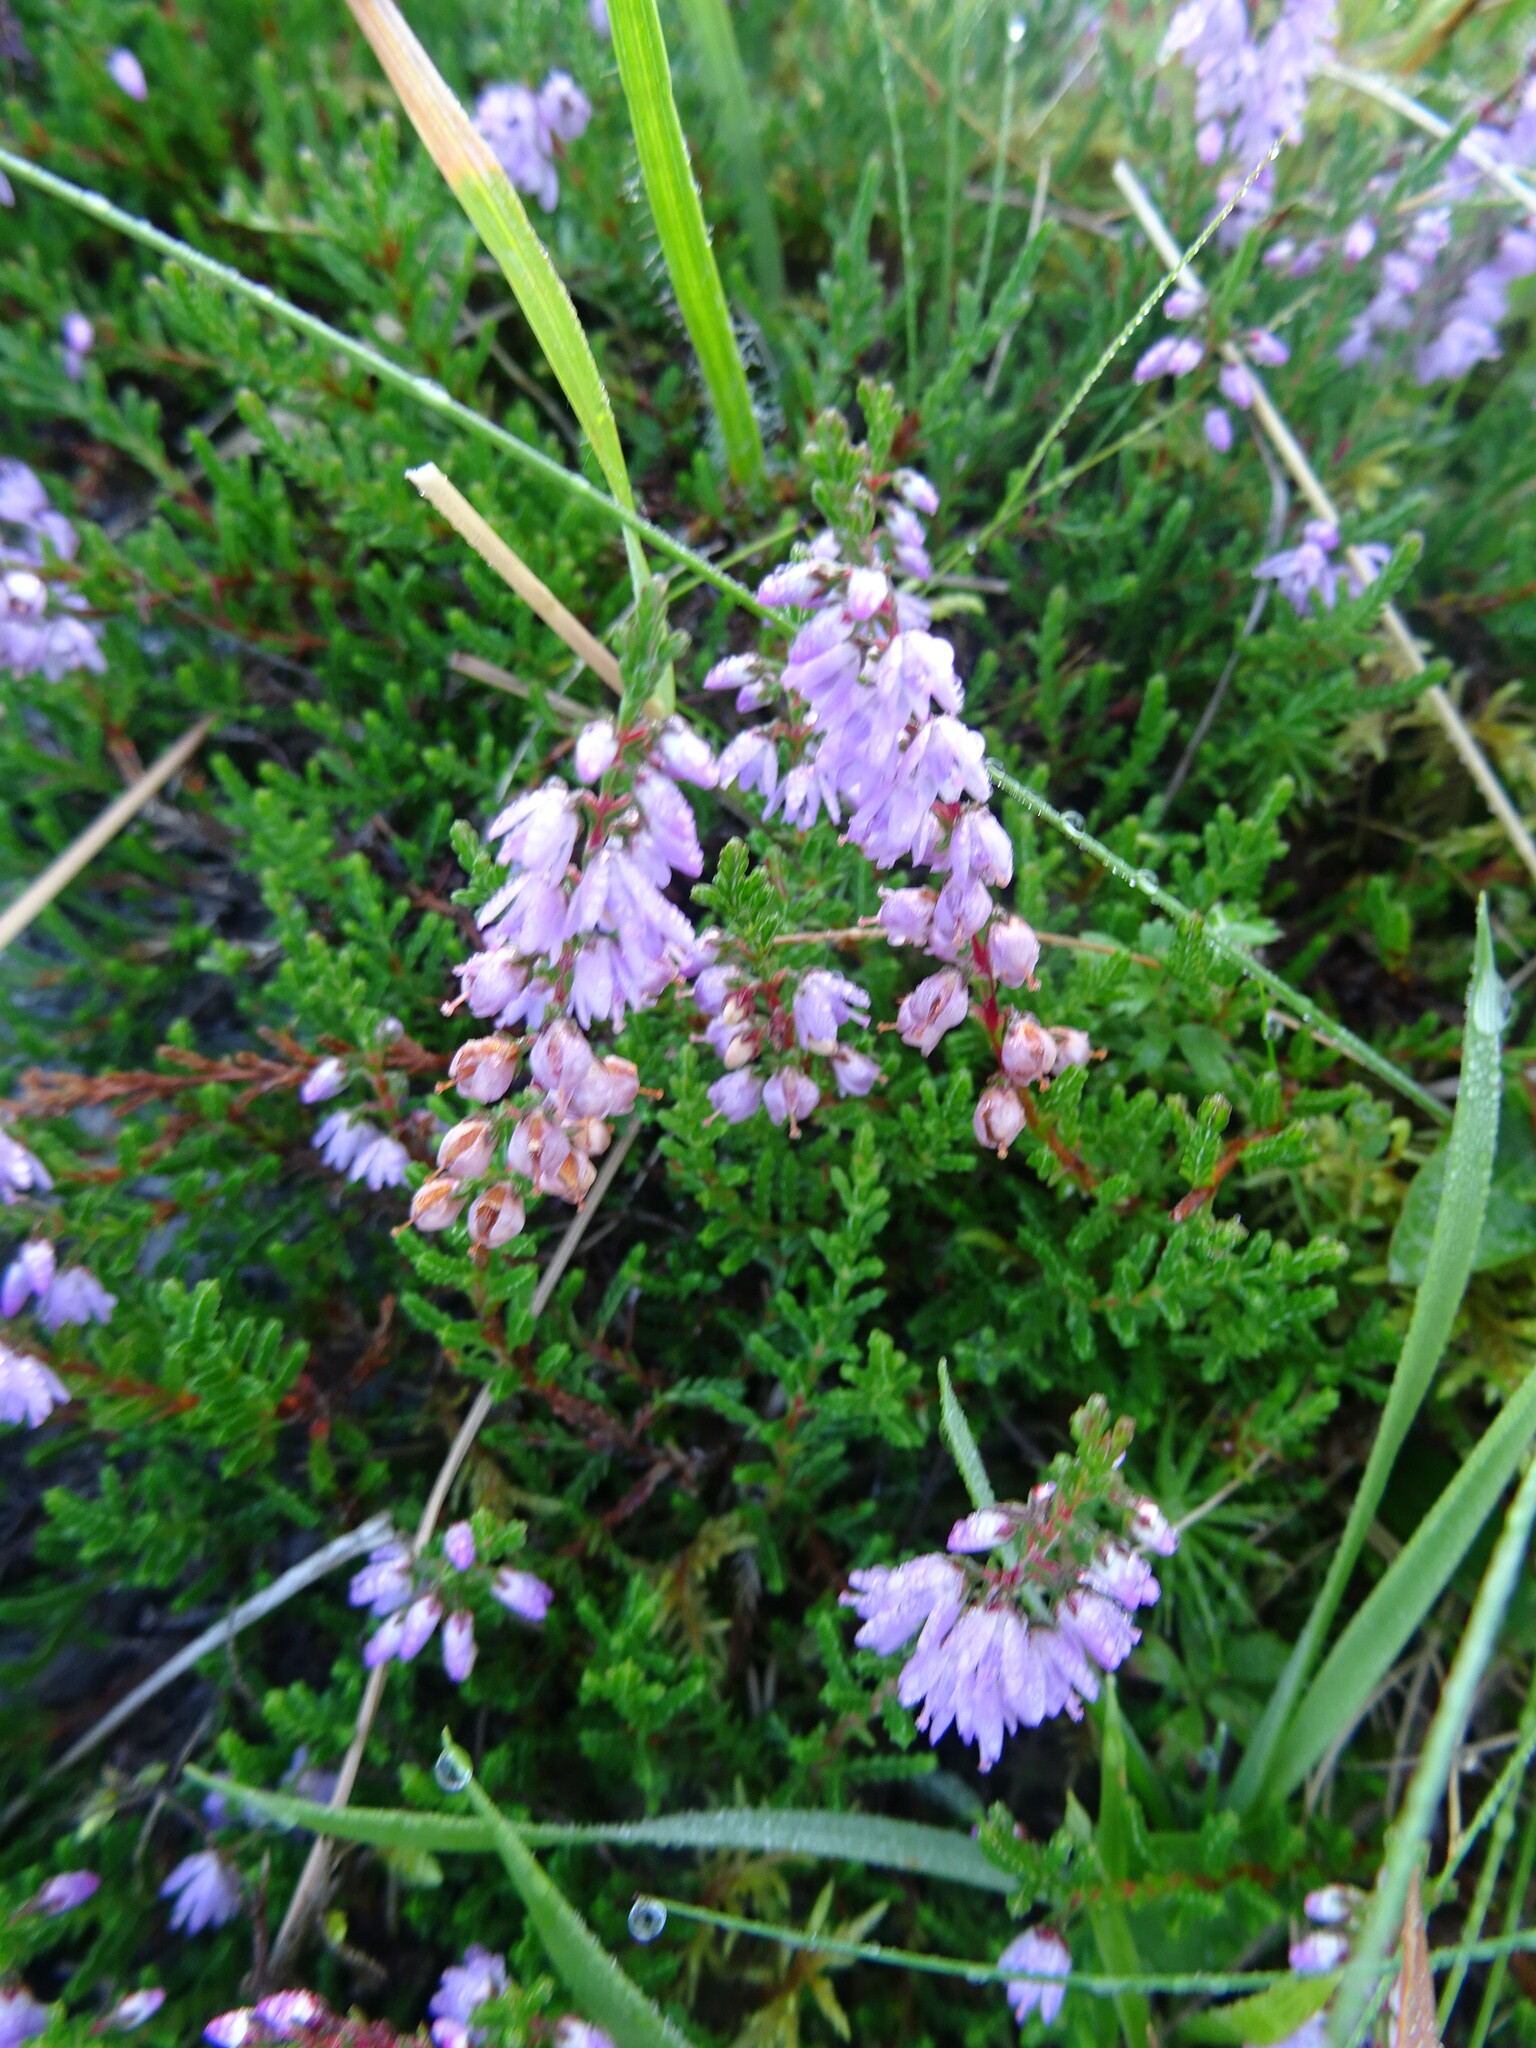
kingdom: Plantae
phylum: Tracheophyta
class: Magnoliopsida
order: Ericales
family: Ericaceae
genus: Calluna
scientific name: Calluna vulgaris
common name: Heather
